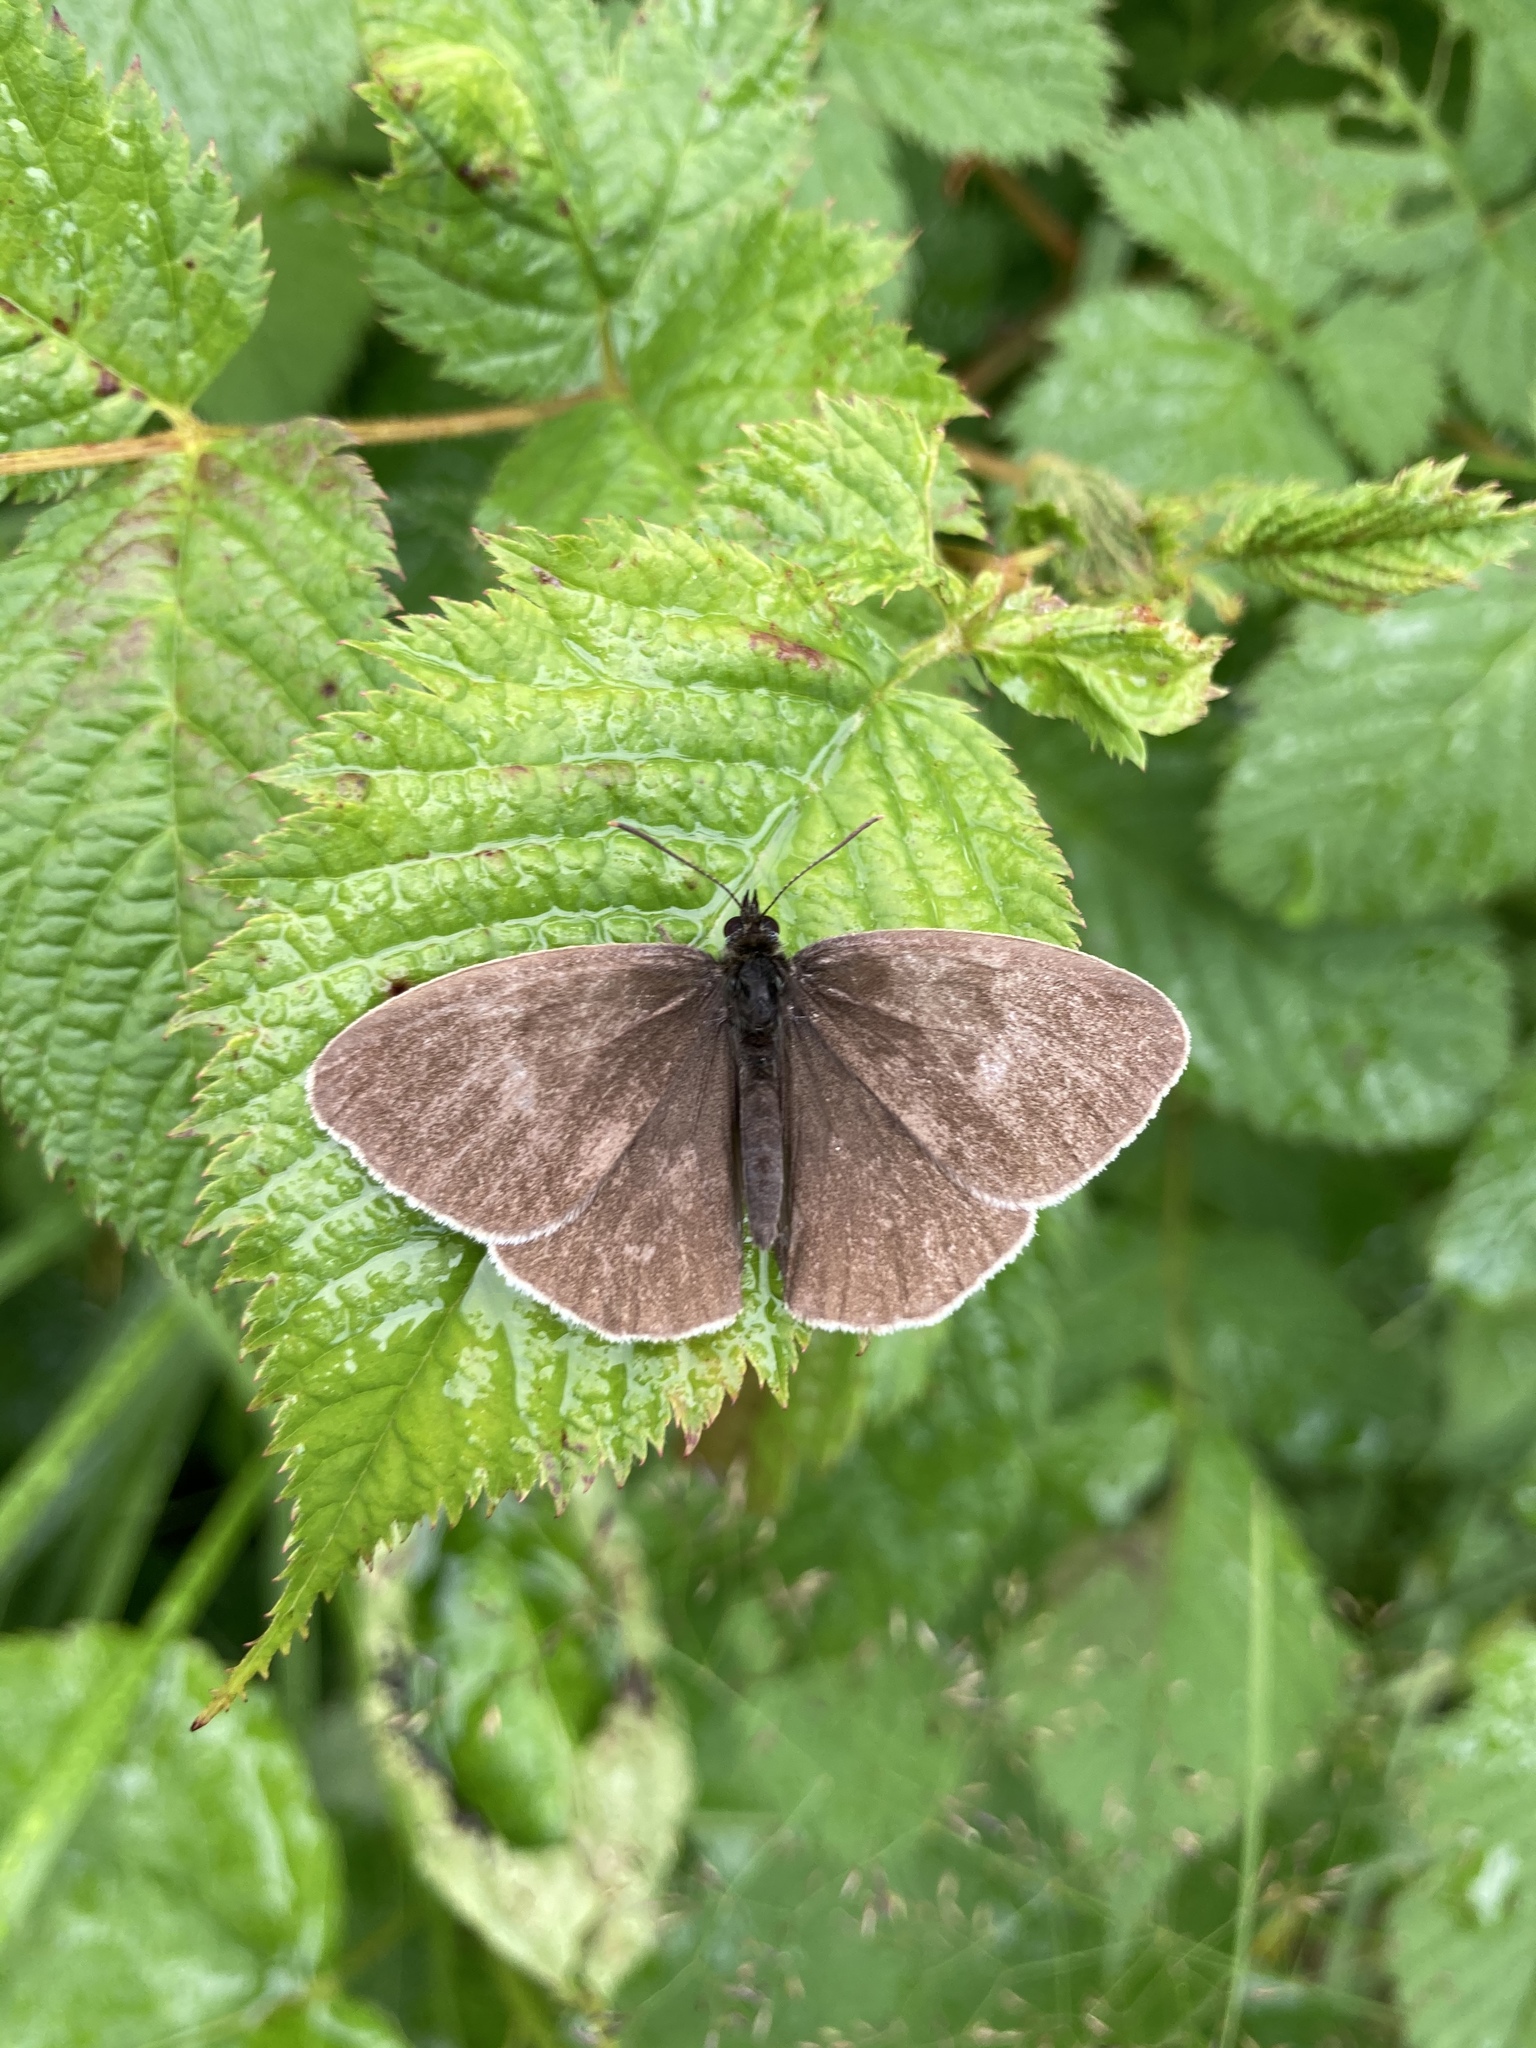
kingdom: Animalia
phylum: Arthropoda
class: Insecta
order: Lepidoptera
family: Nymphalidae
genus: Aphantopus
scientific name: Aphantopus hyperantus
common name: Ringlet
